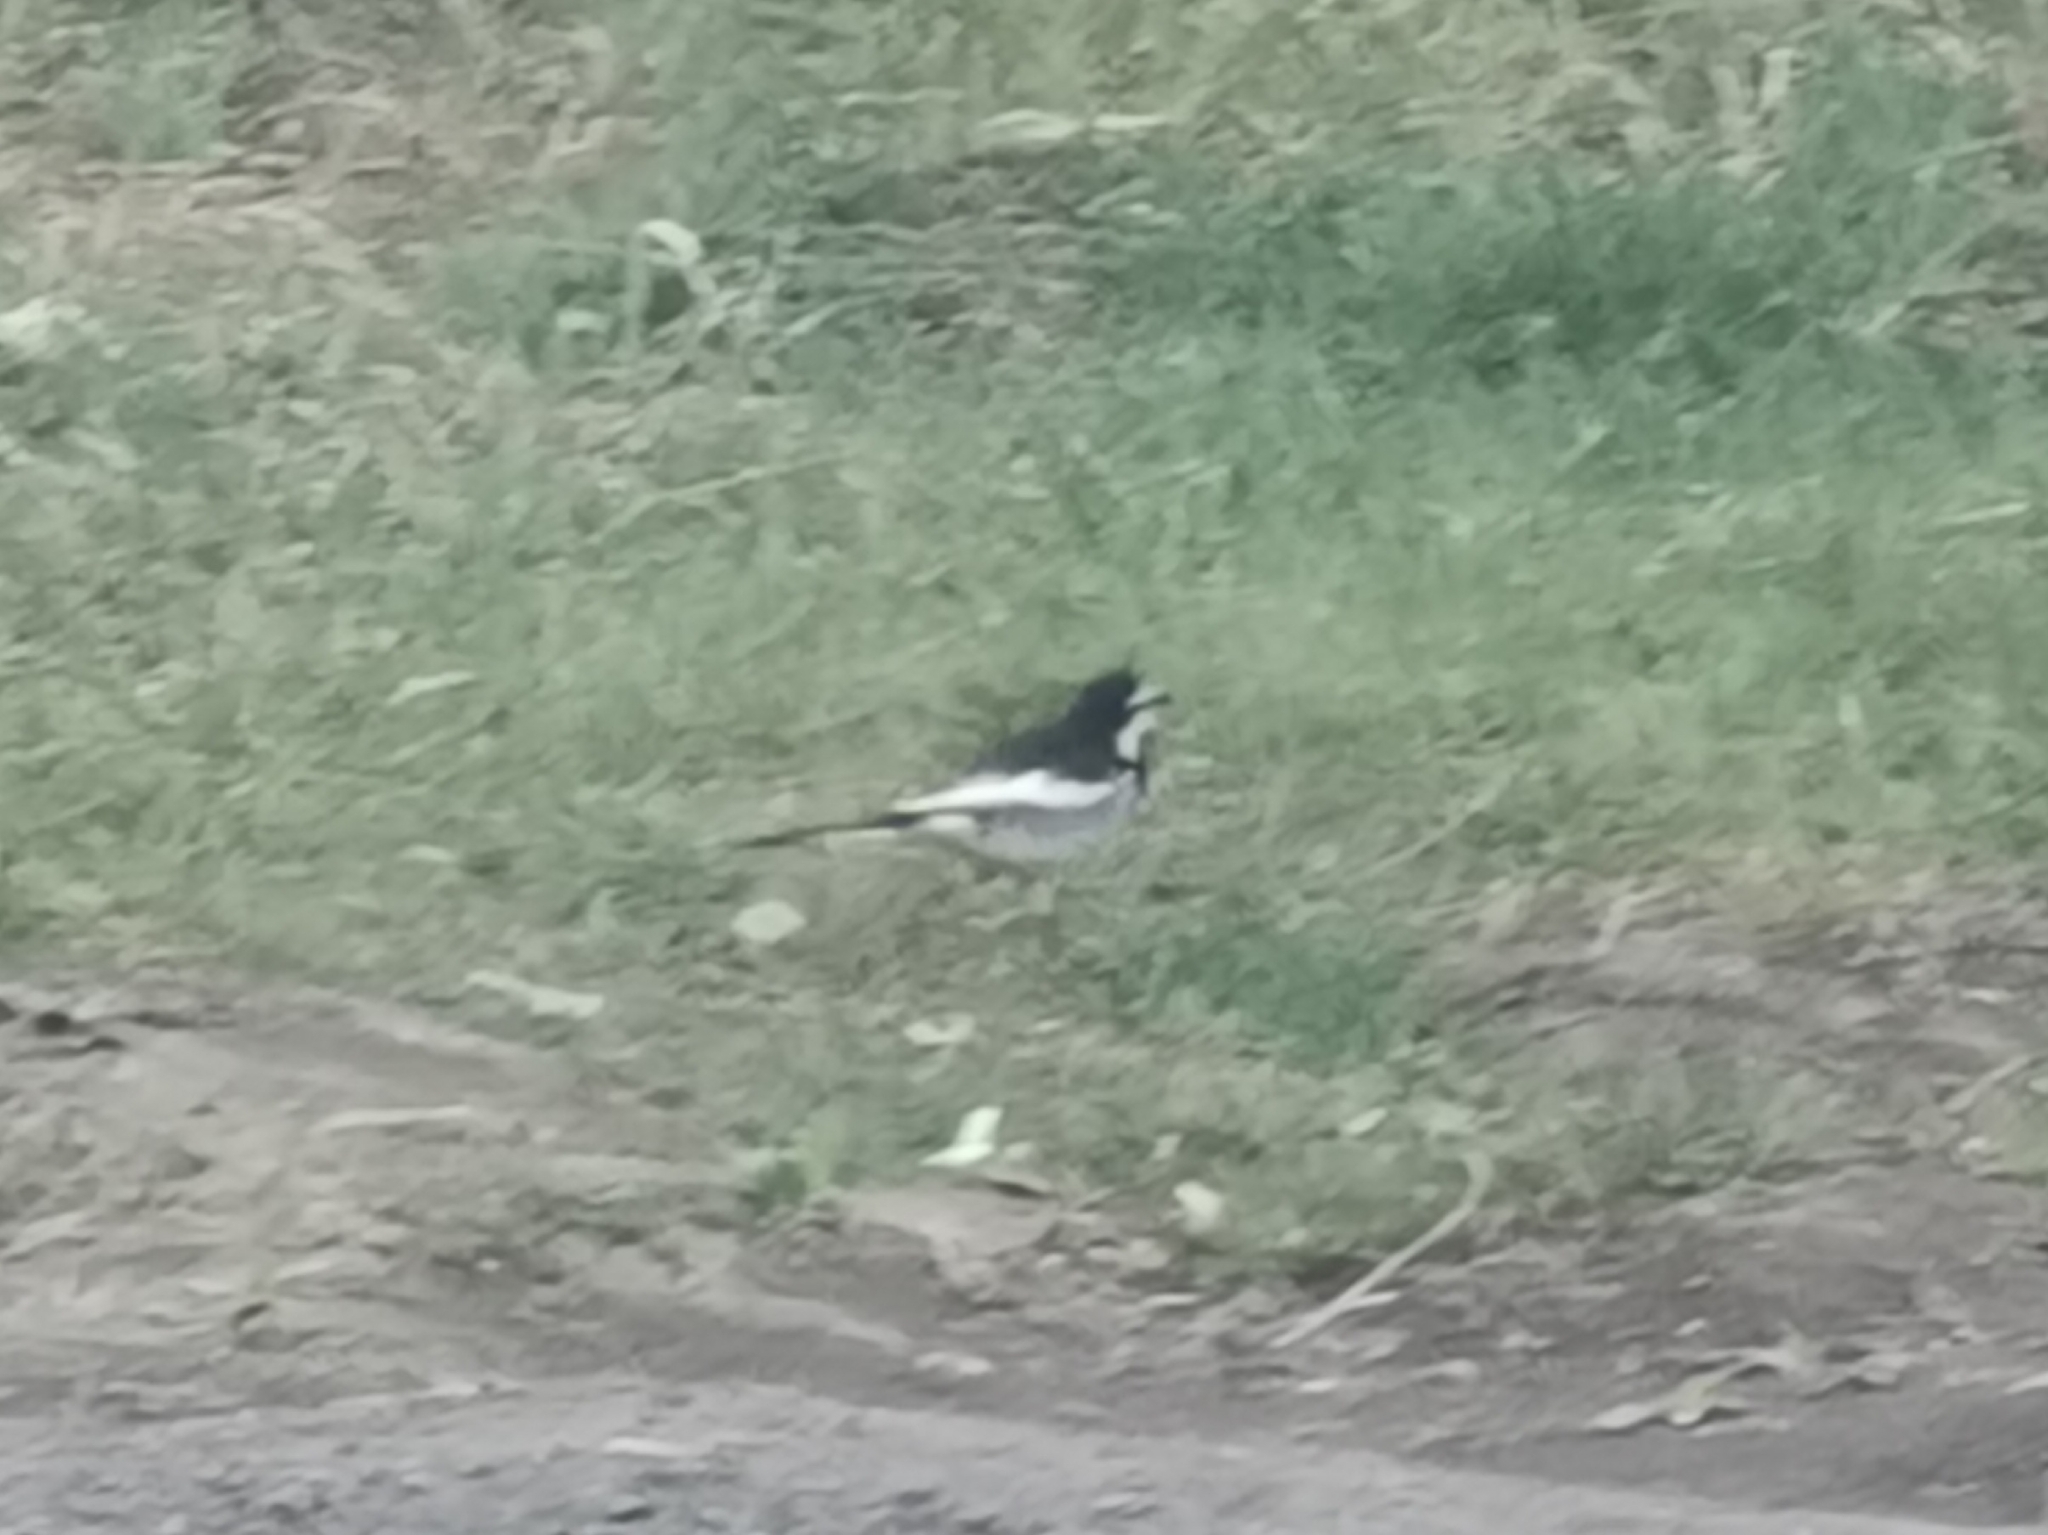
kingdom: Animalia
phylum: Chordata
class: Aves
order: Passeriformes
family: Motacillidae
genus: Motacilla
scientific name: Motacilla alba
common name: White wagtail
